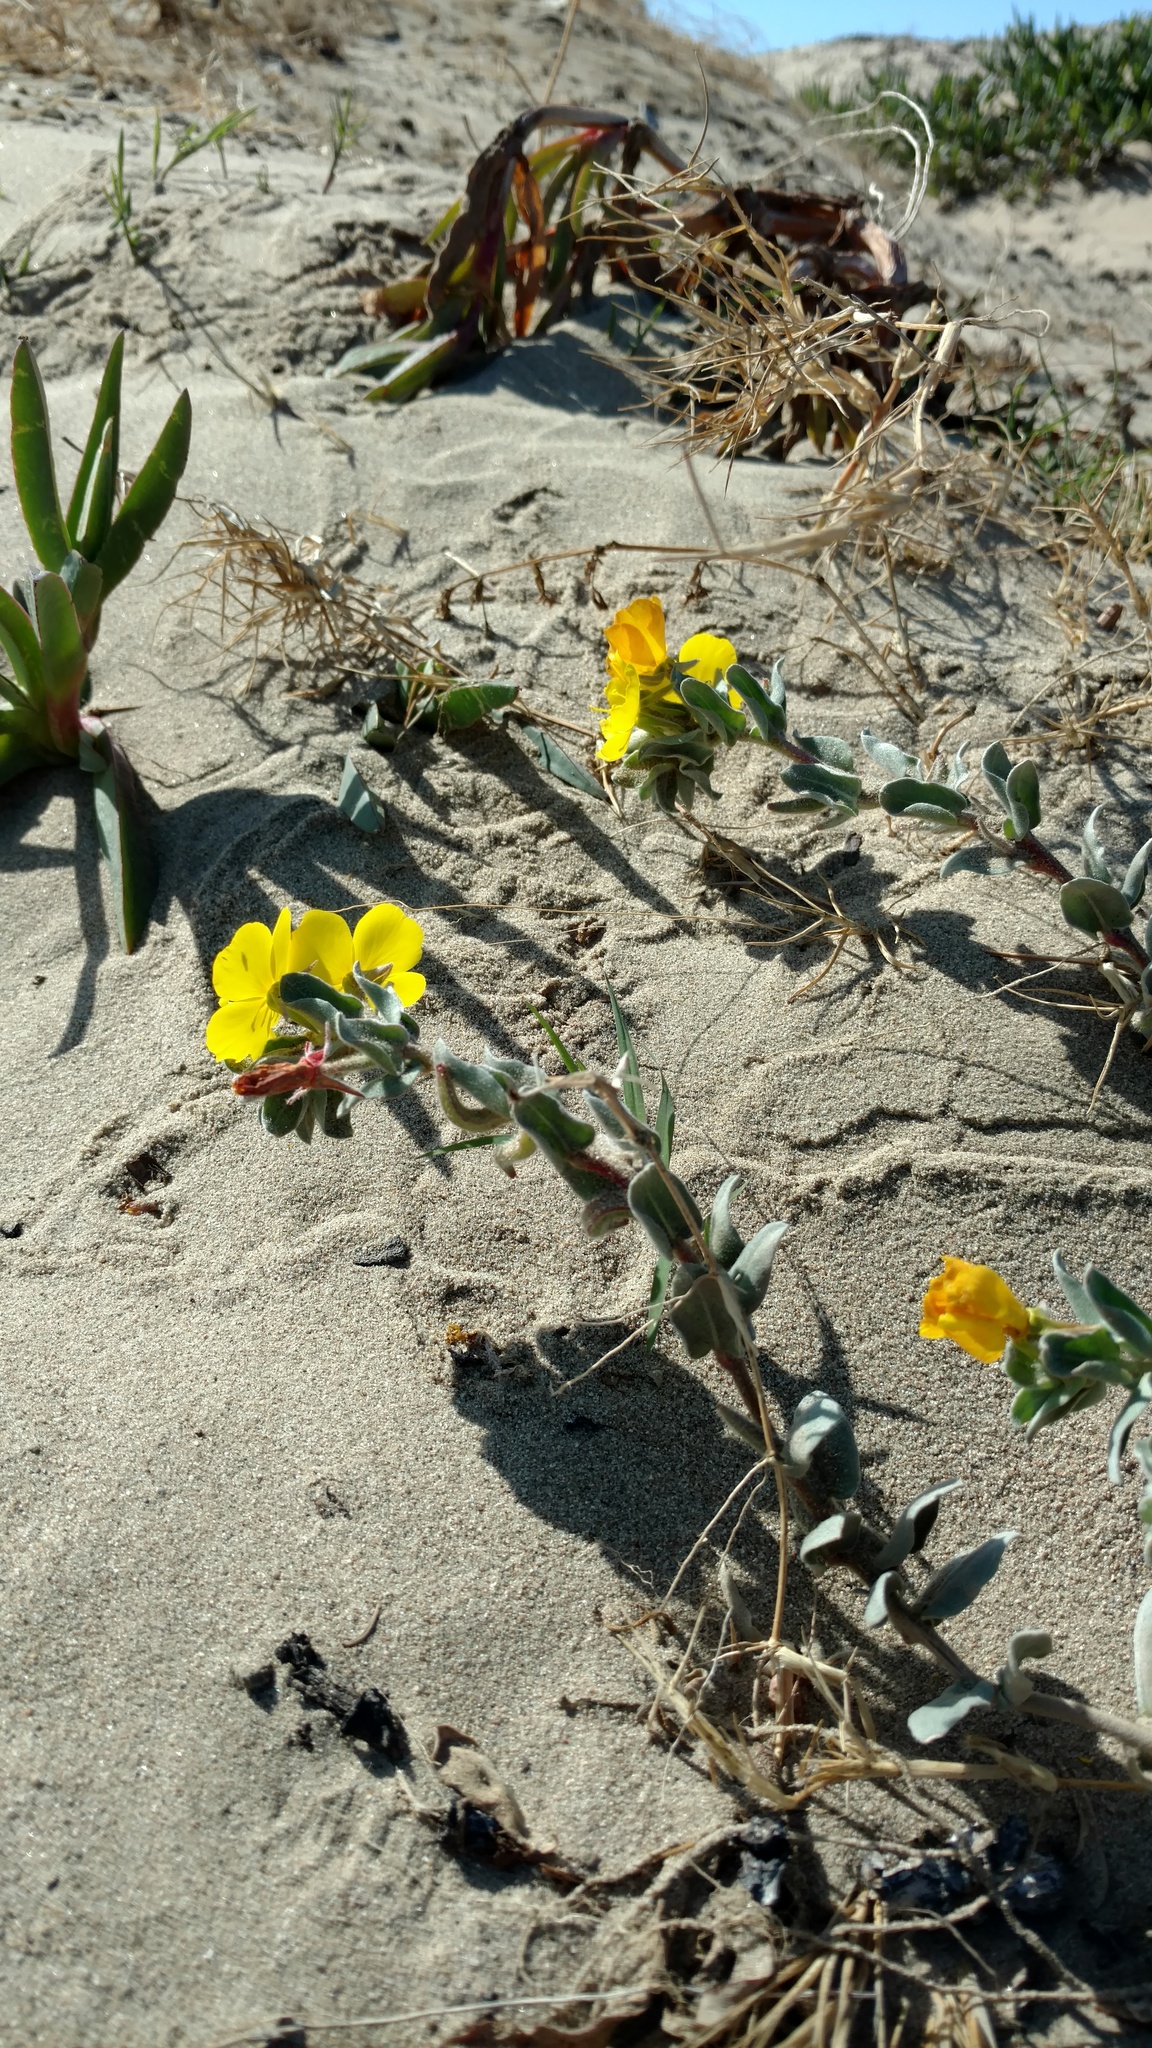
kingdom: Plantae
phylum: Tracheophyta
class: Magnoliopsida
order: Myrtales
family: Onagraceae
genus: Camissoniopsis
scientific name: Camissoniopsis cheiranthifolia
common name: Beach suncup
